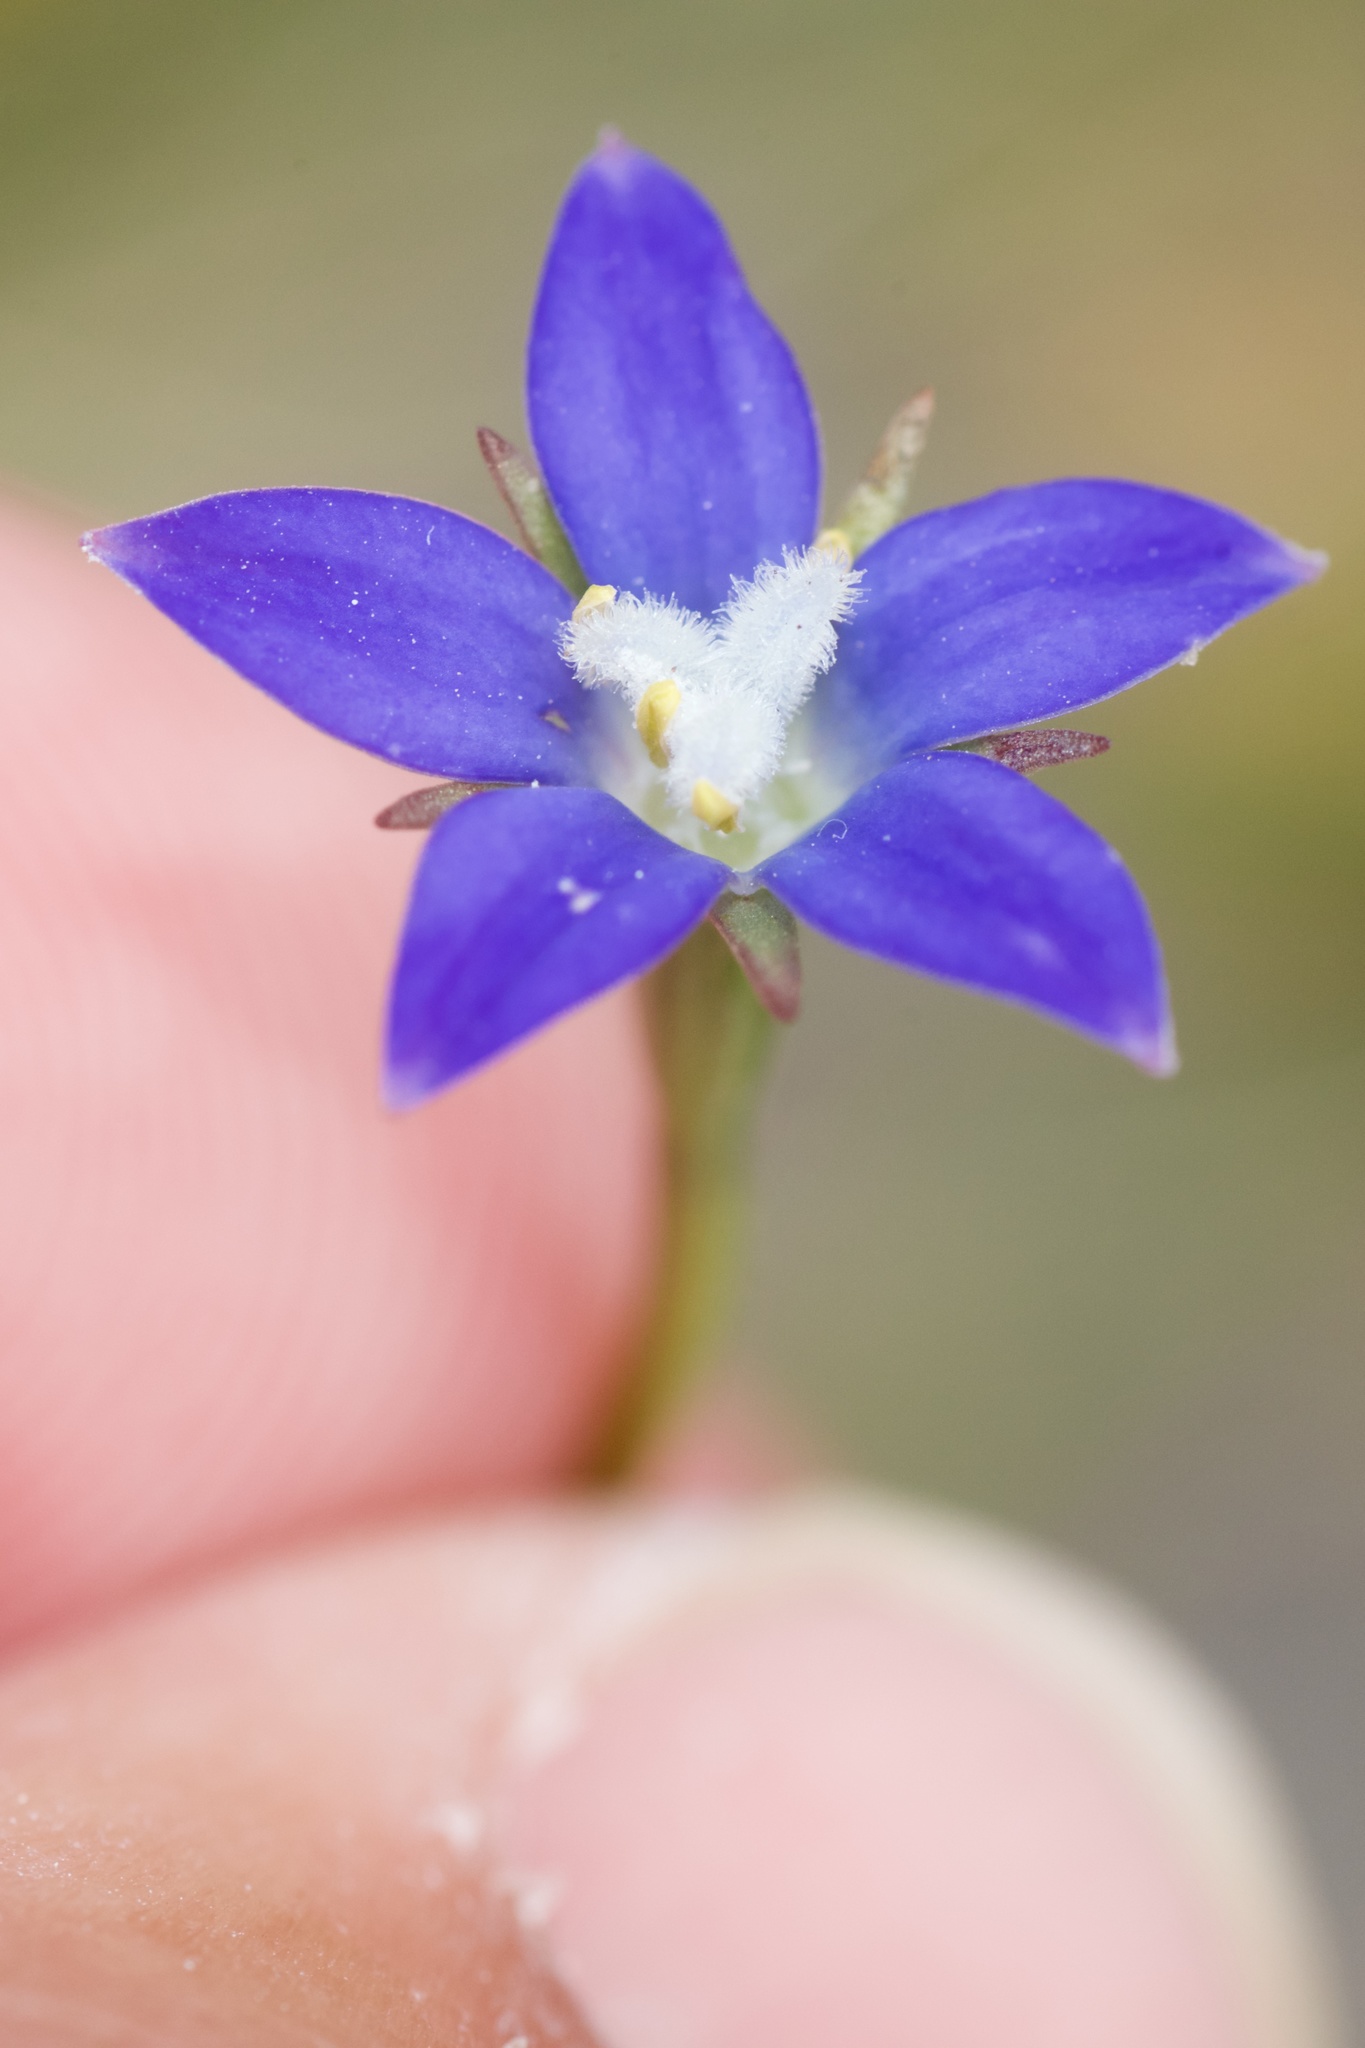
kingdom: Plantae
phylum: Tracheophyta
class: Magnoliopsida
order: Asterales
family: Campanulaceae
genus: Wahlenbergia
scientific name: Wahlenbergia gracilis
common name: Harebell
